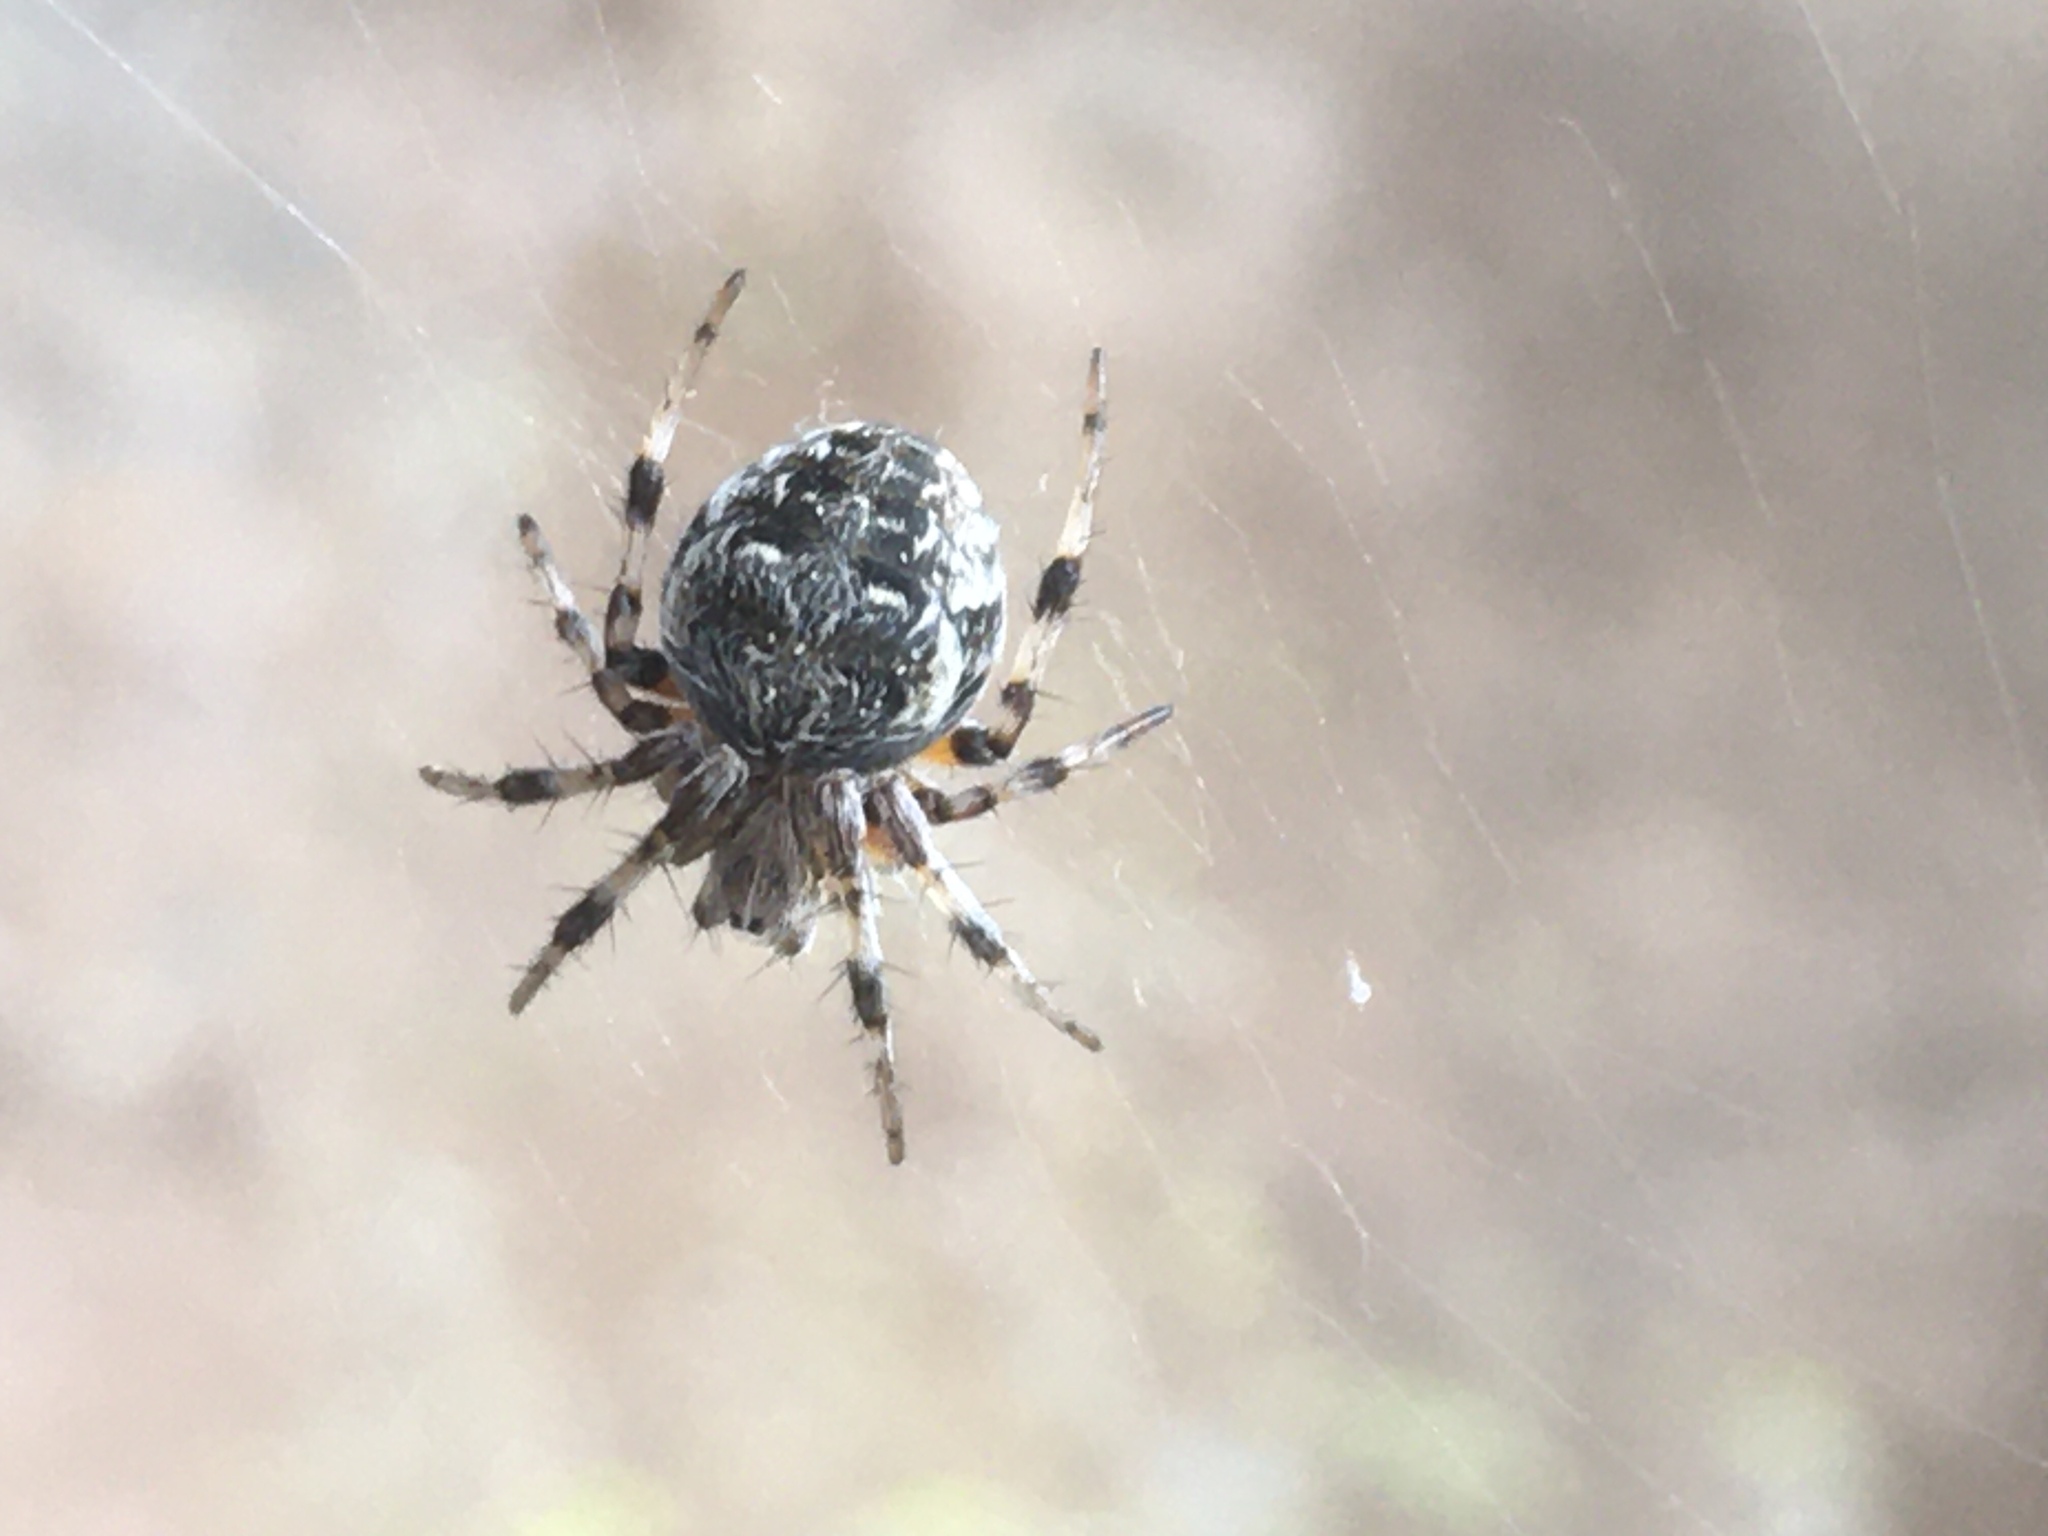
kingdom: Animalia
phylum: Arthropoda
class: Arachnida
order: Araneae
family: Araneidae
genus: Metepeira
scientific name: Metepeira
